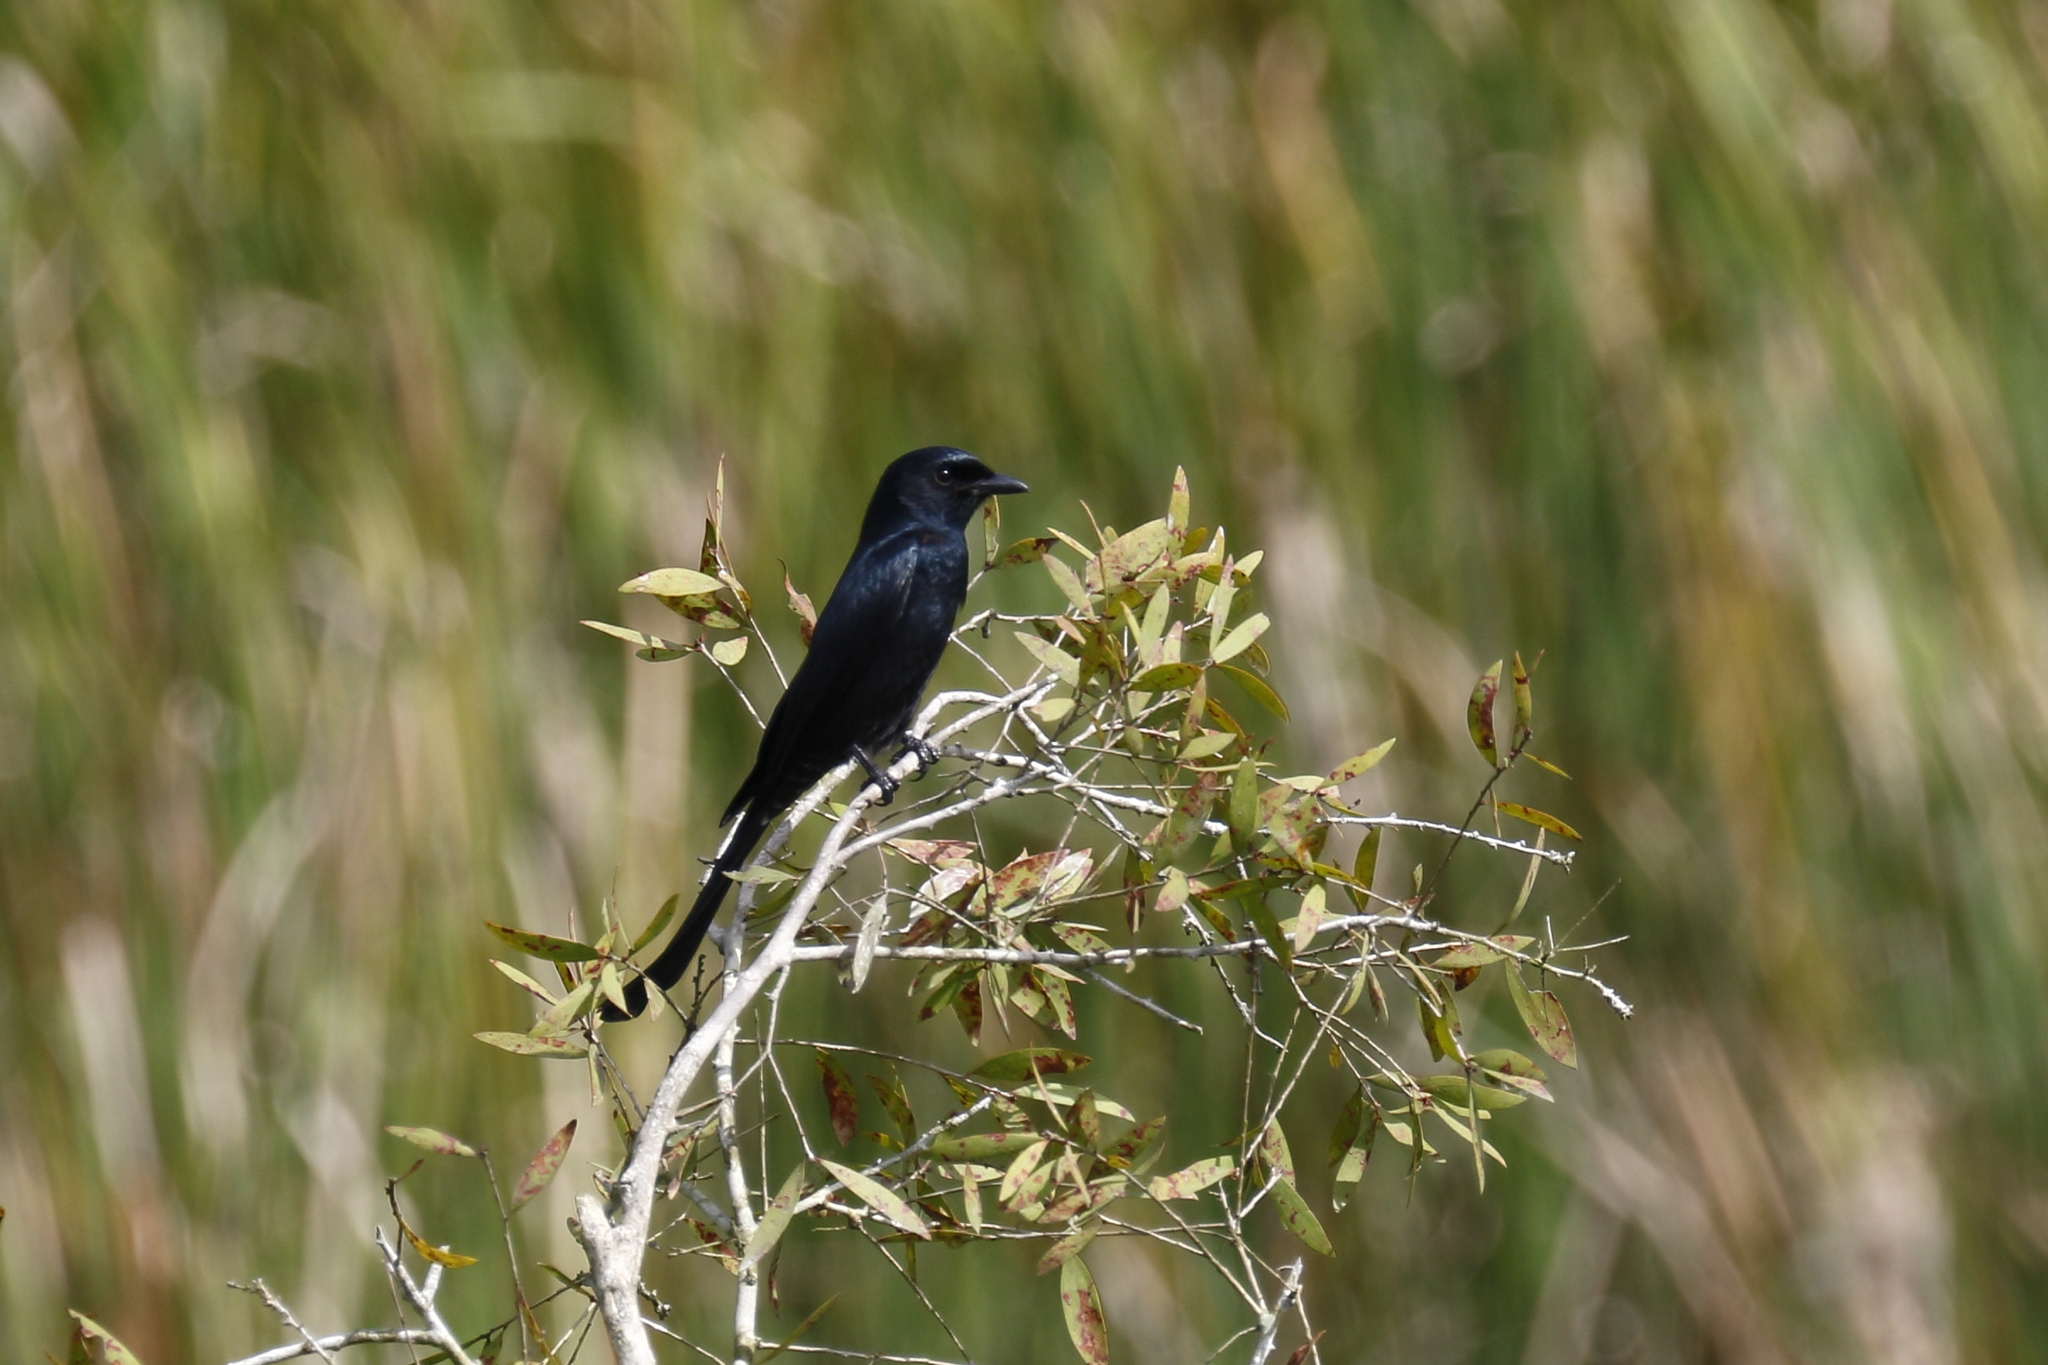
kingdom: Animalia
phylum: Chordata
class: Aves
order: Passeriformes
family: Dicruridae
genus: Dicrurus
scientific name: Dicrurus macrocercus
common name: Black drongo
